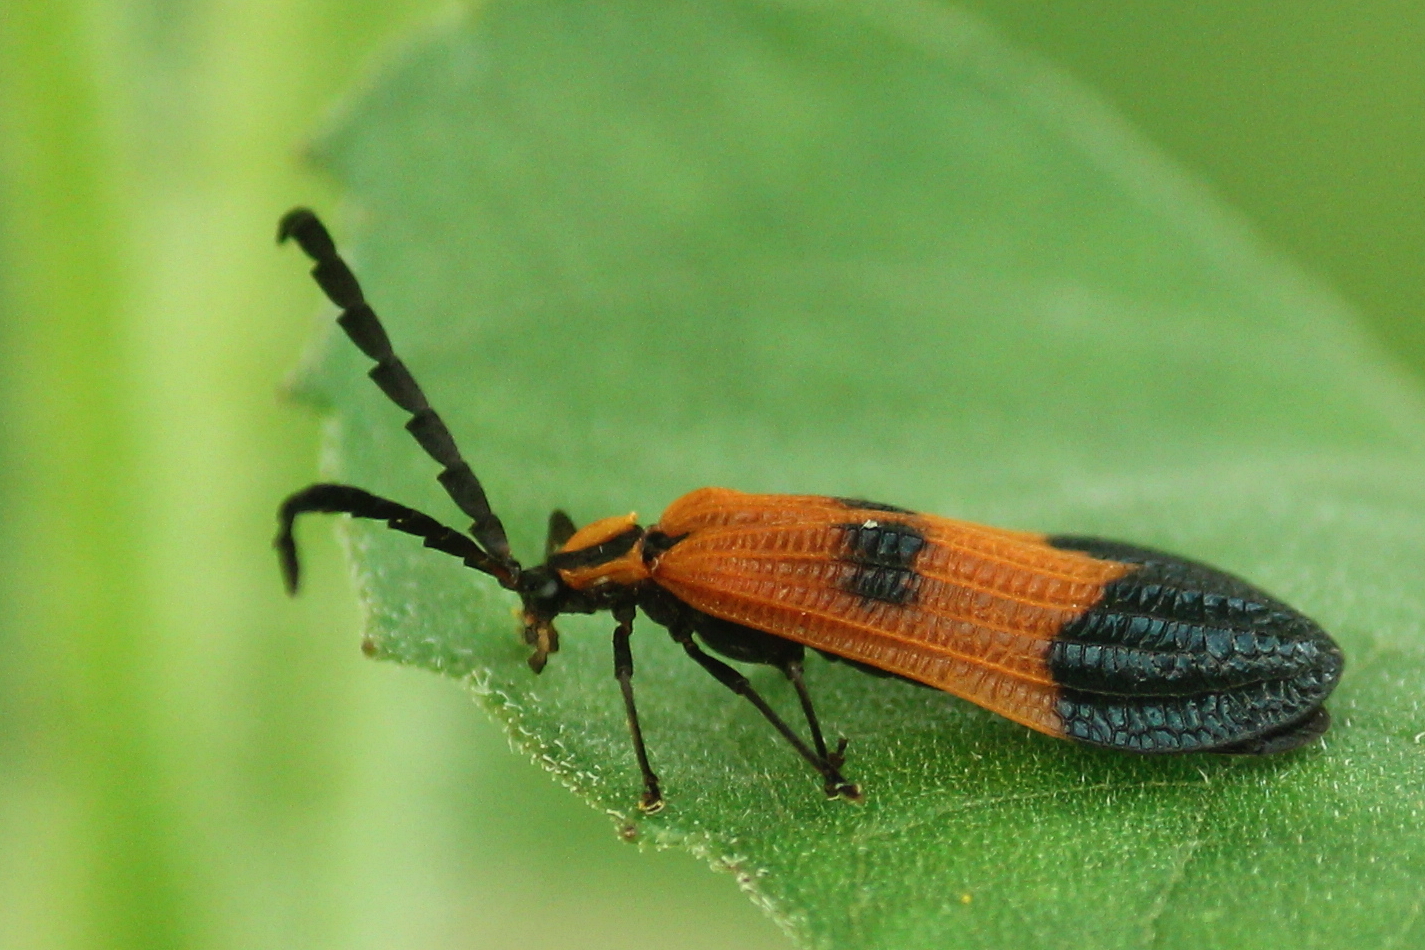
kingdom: Animalia
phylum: Arthropoda
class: Insecta
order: Coleoptera
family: Lycidae
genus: Calopteron
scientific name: Calopteron terminale
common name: End band net-winged beetle
